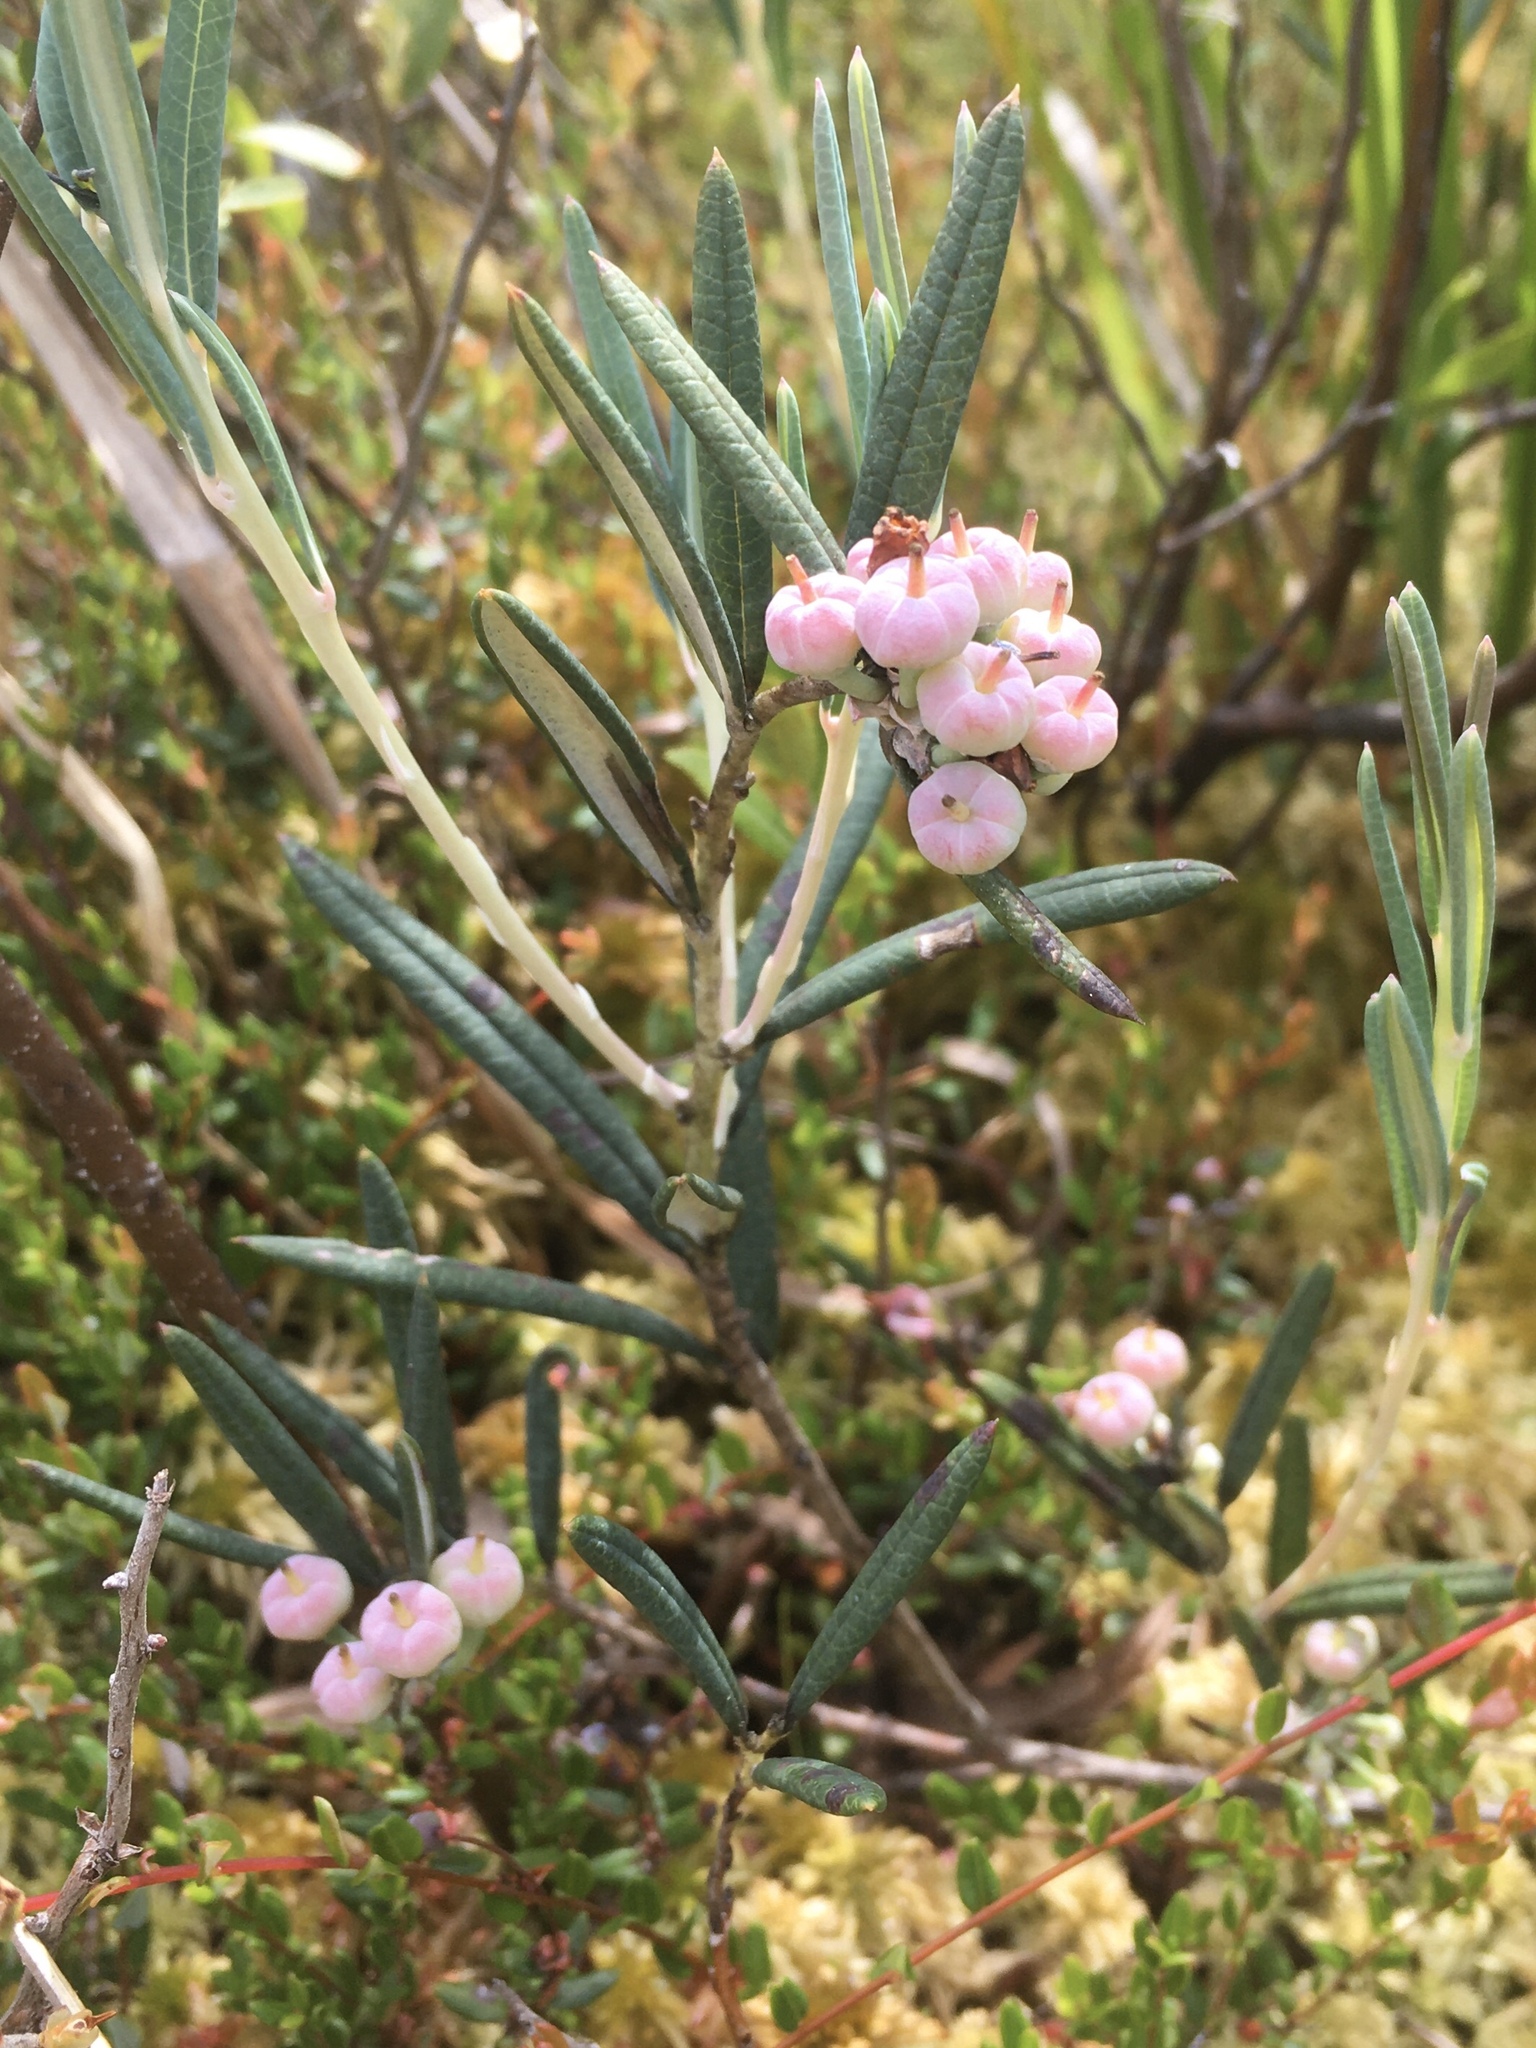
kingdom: Plantae
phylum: Tracheophyta
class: Magnoliopsida
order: Ericales
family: Ericaceae
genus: Andromeda
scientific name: Andromeda polifolia
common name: Bog-rosemary
